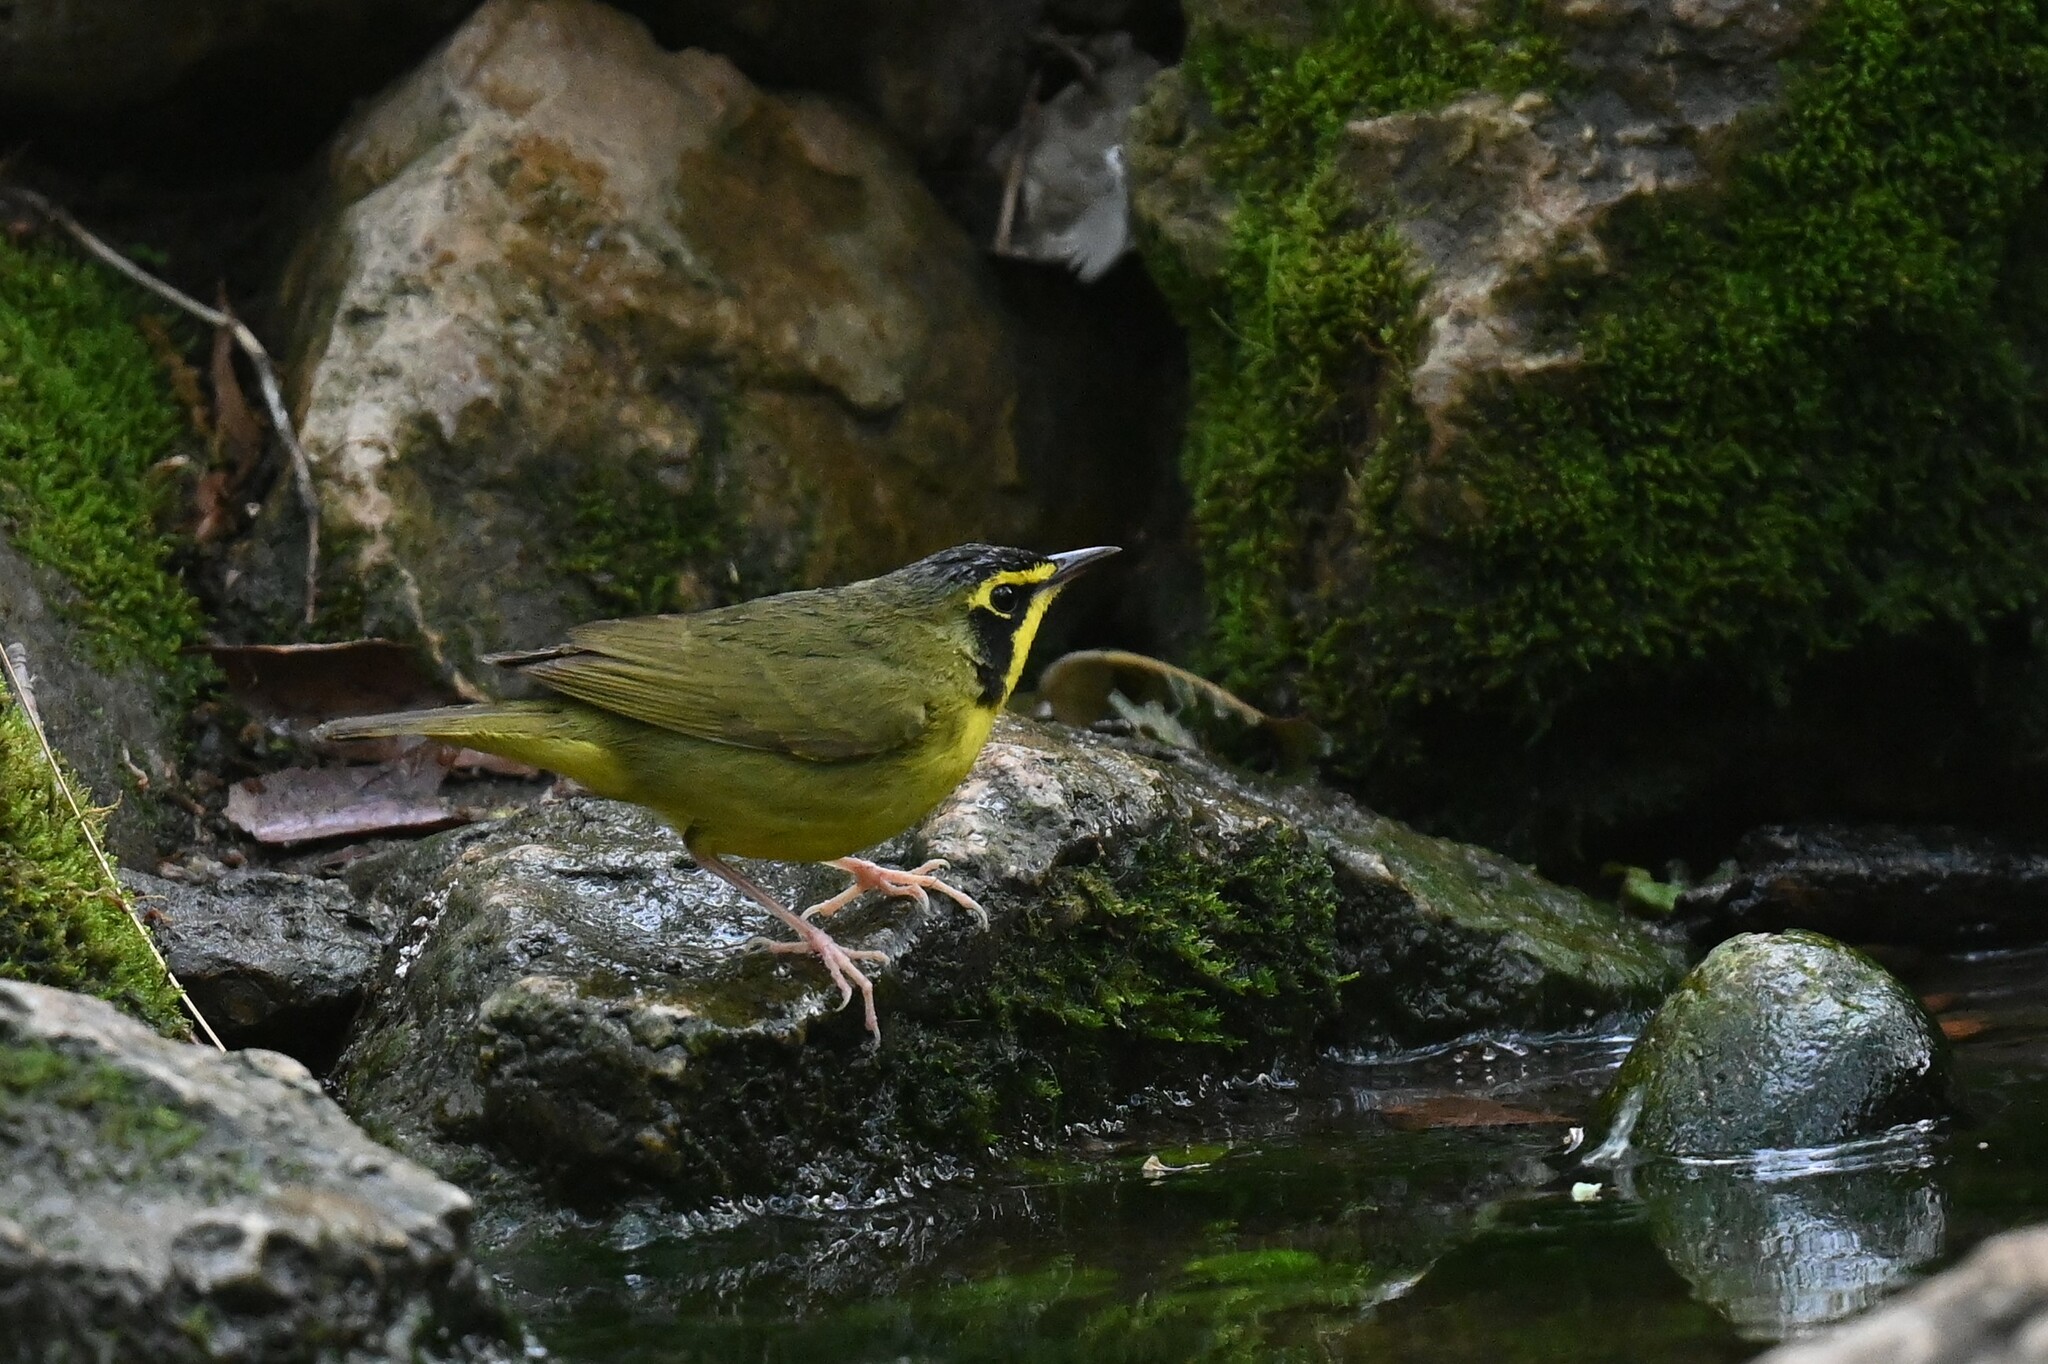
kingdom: Animalia
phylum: Chordata
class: Aves
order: Passeriformes
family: Parulidae
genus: Geothlypis
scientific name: Geothlypis trichas
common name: Common yellowthroat
